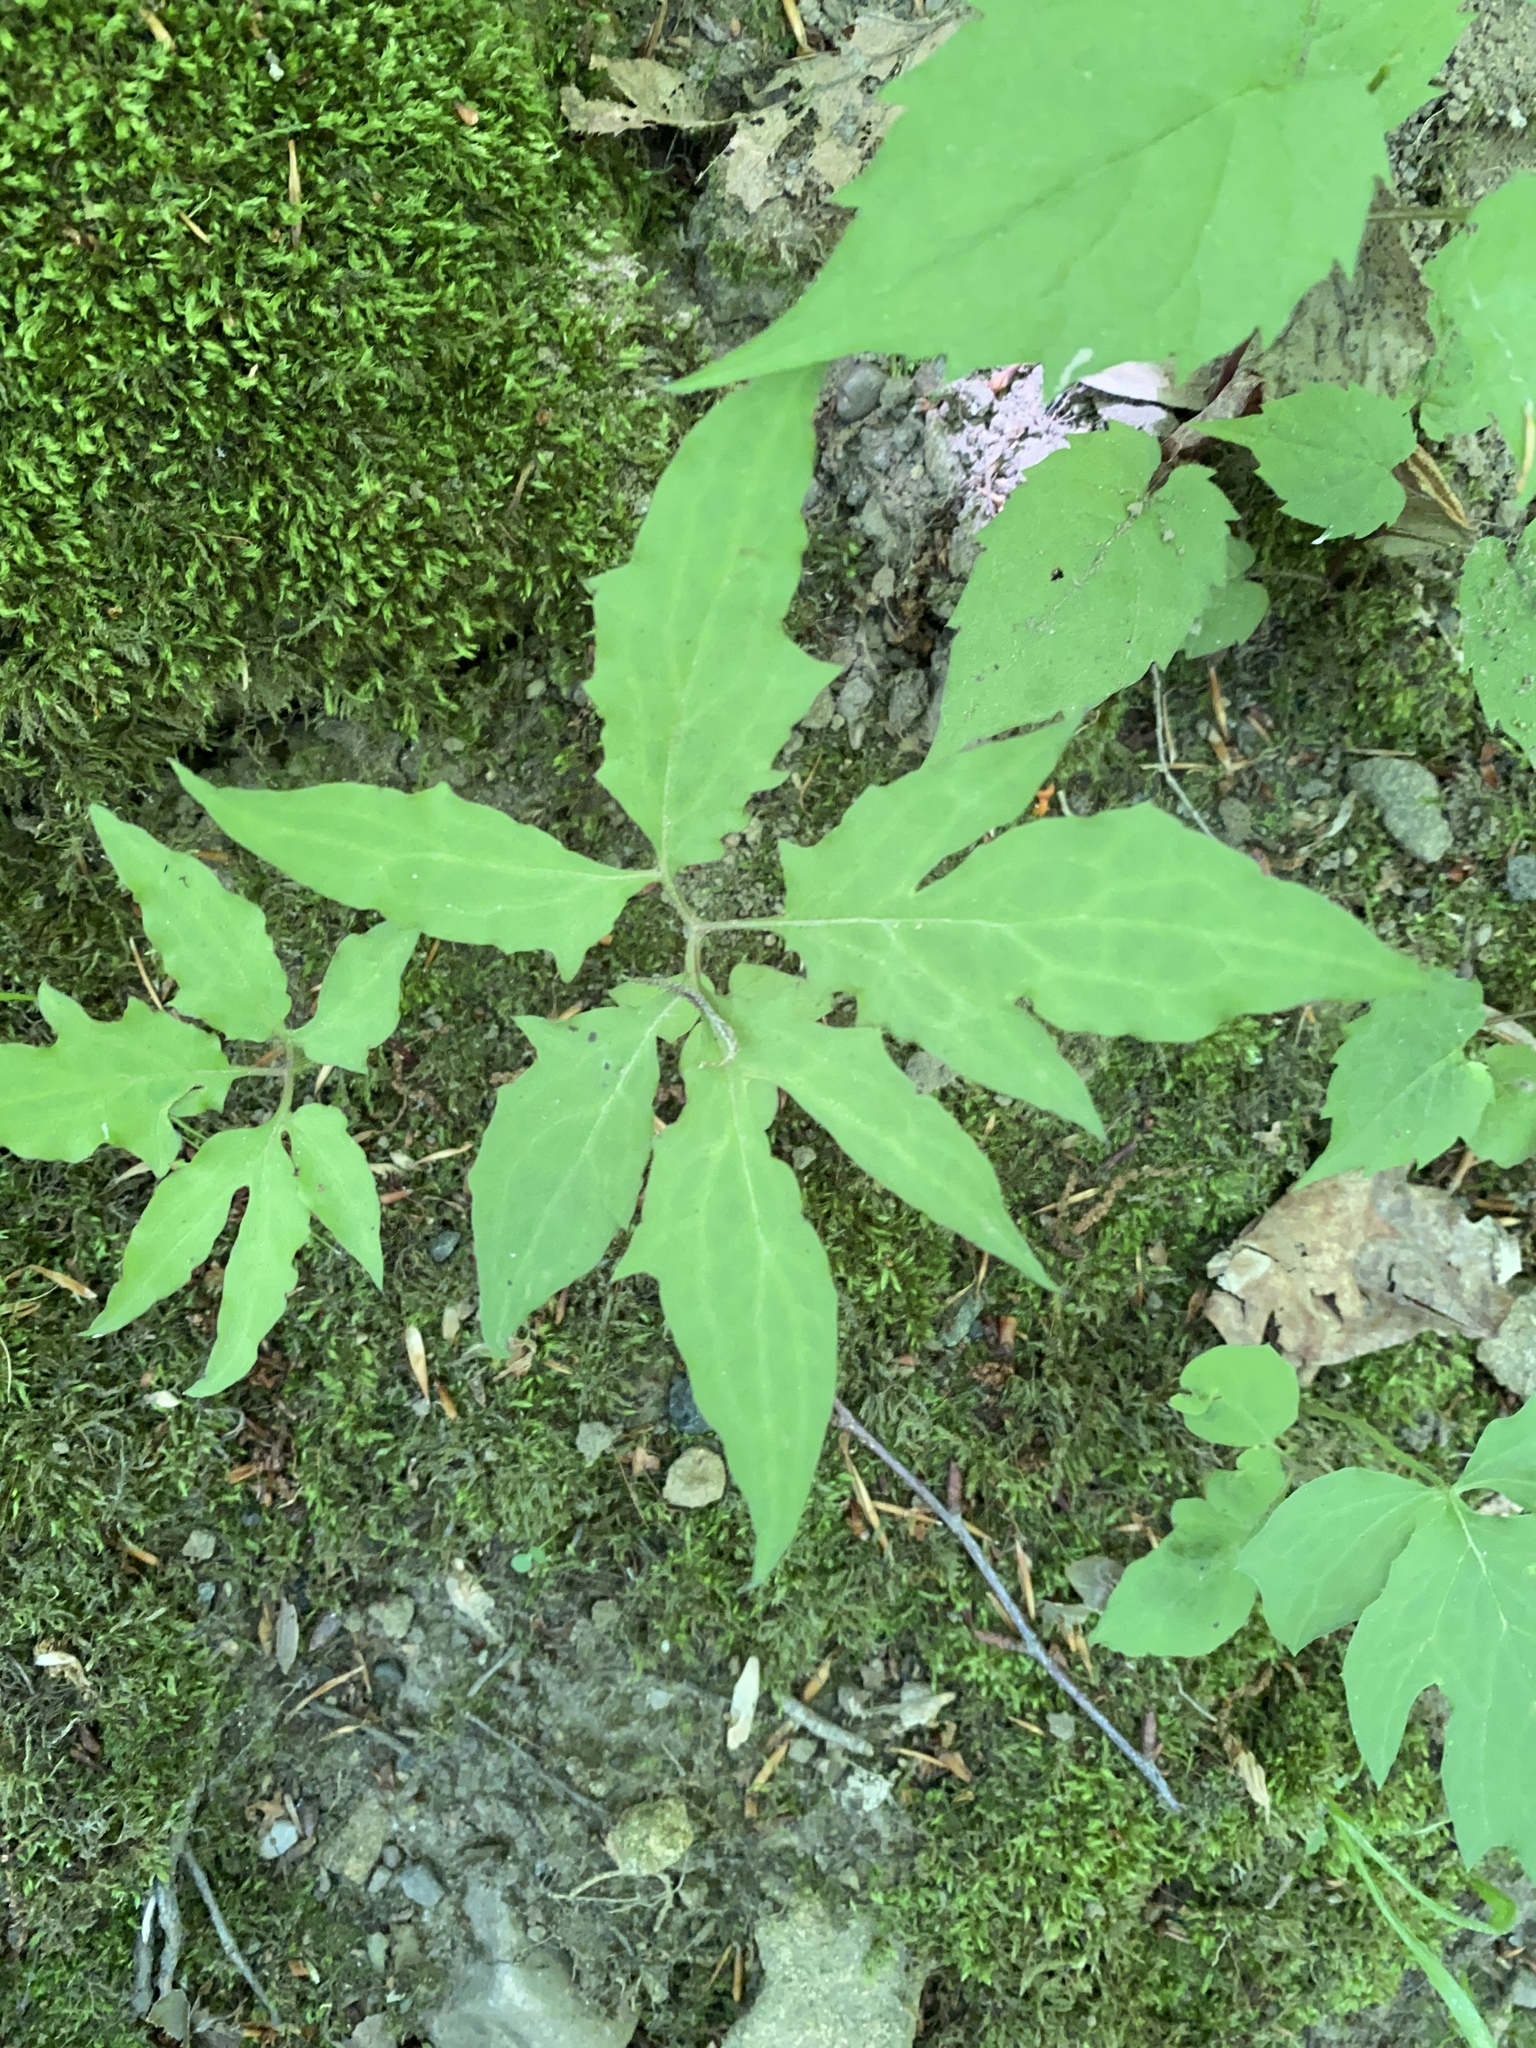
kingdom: Plantae
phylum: Tracheophyta
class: Magnoliopsida
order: Asterales
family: Asteraceae
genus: Nabalus
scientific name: Nabalus trifoliolatus
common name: Gall-of-the-earth
